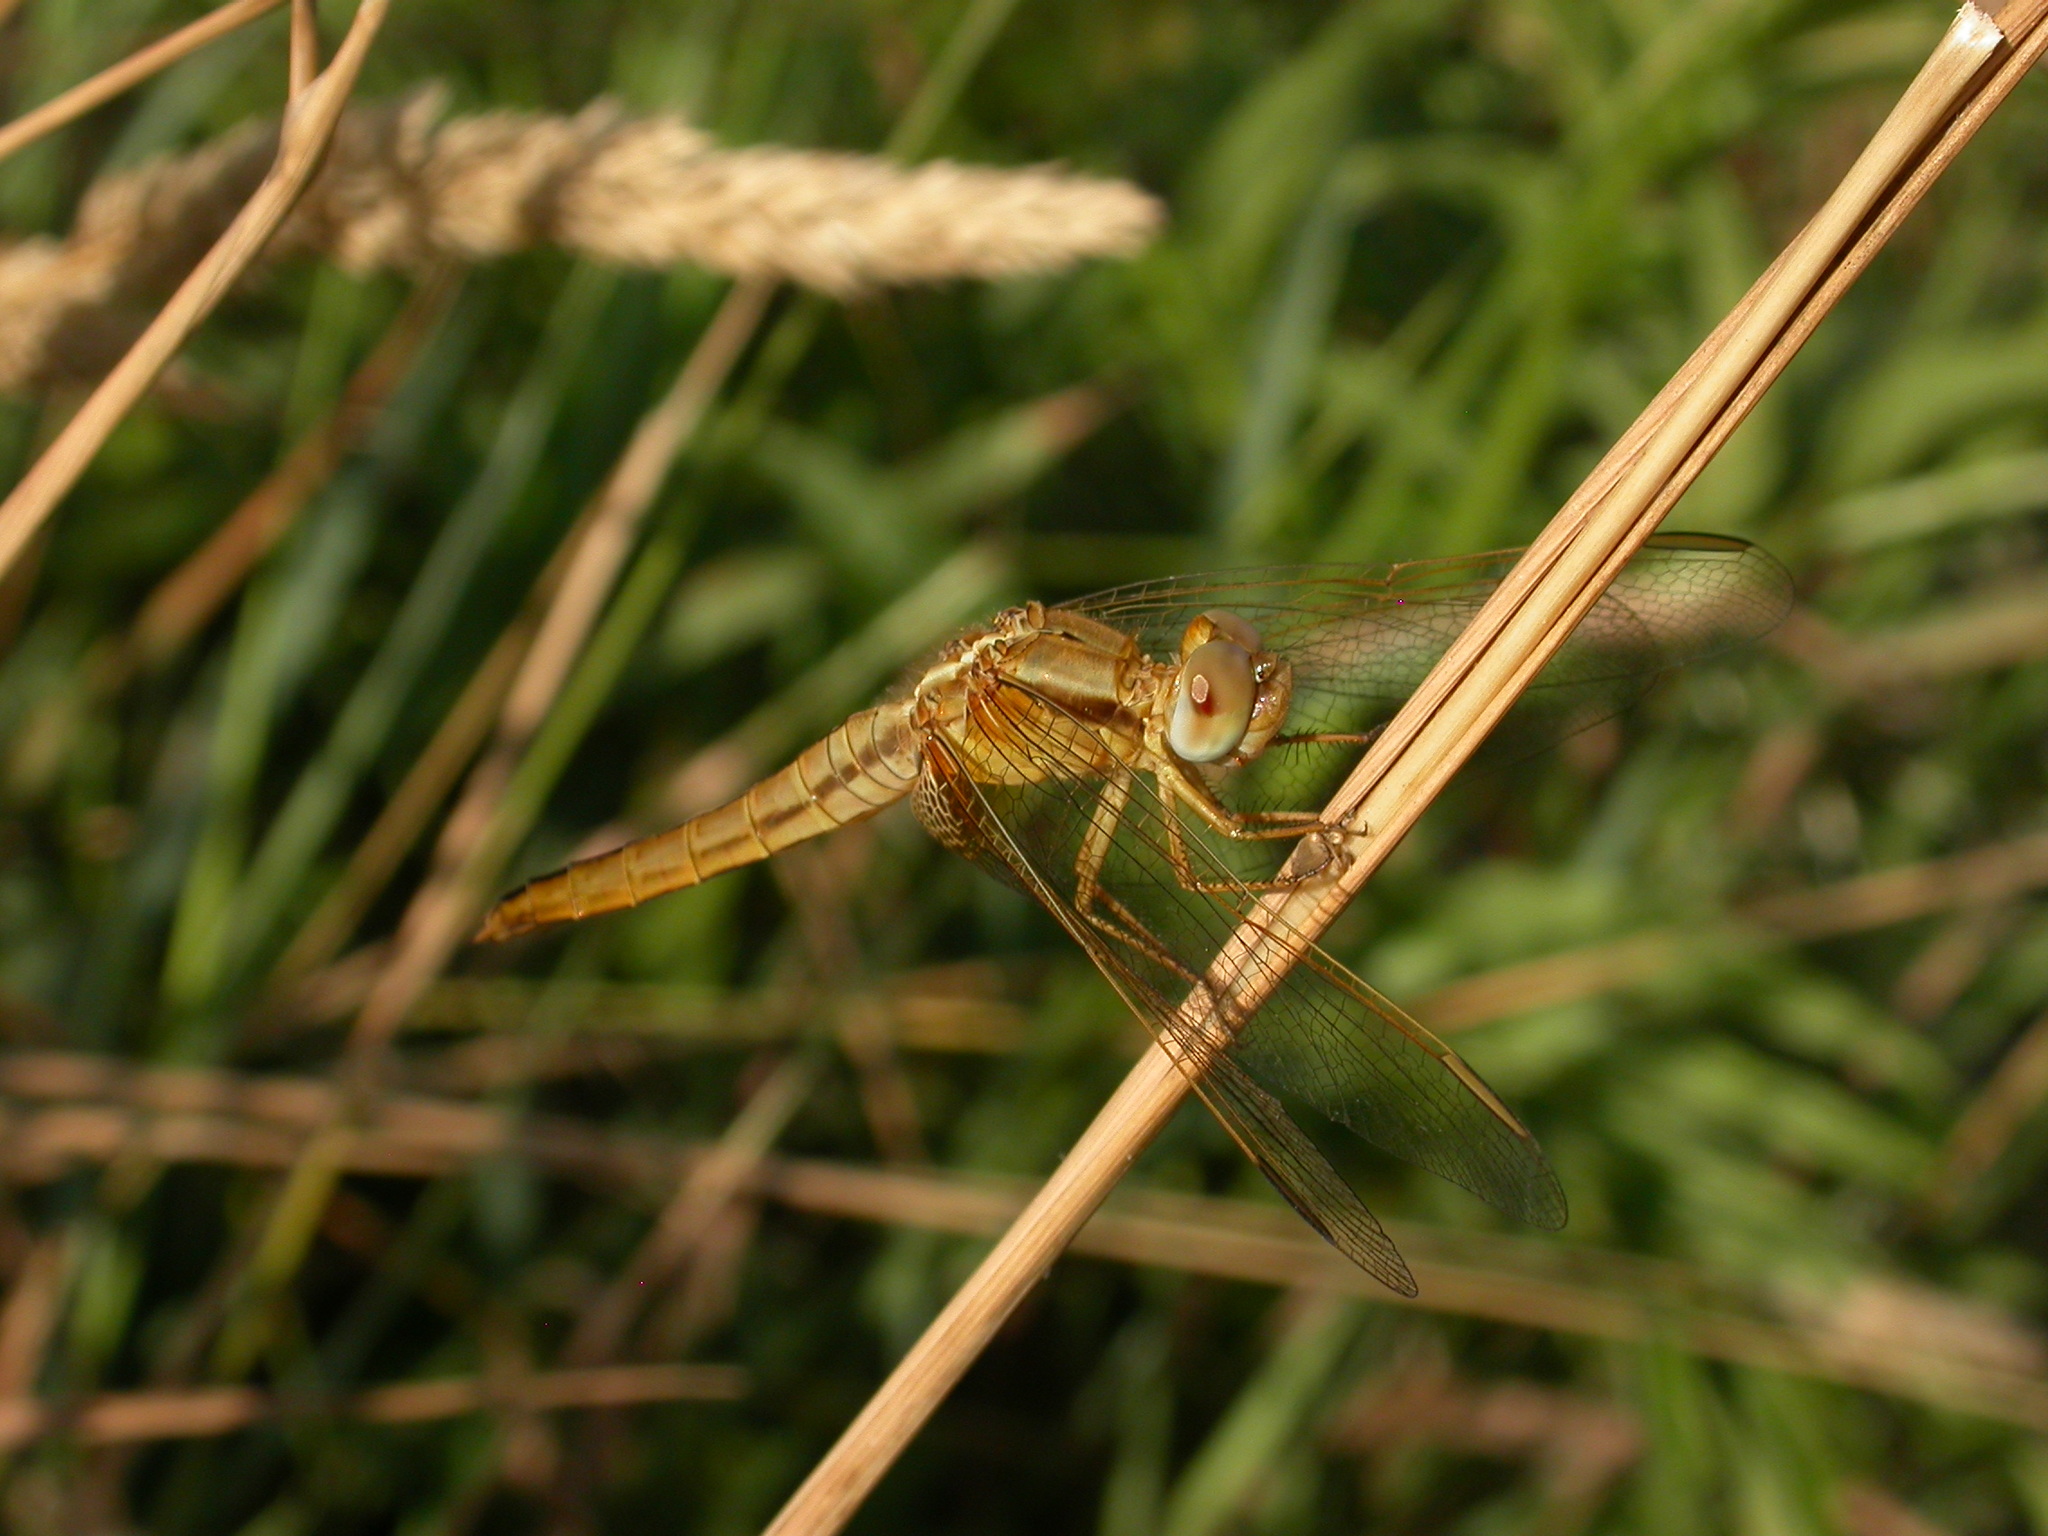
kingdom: Animalia
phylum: Arthropoda
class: Insecta
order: Odonata
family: Libellulidae
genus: Crocothemis
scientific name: Crocothemis erythraea
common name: Scarlet dragonfly
